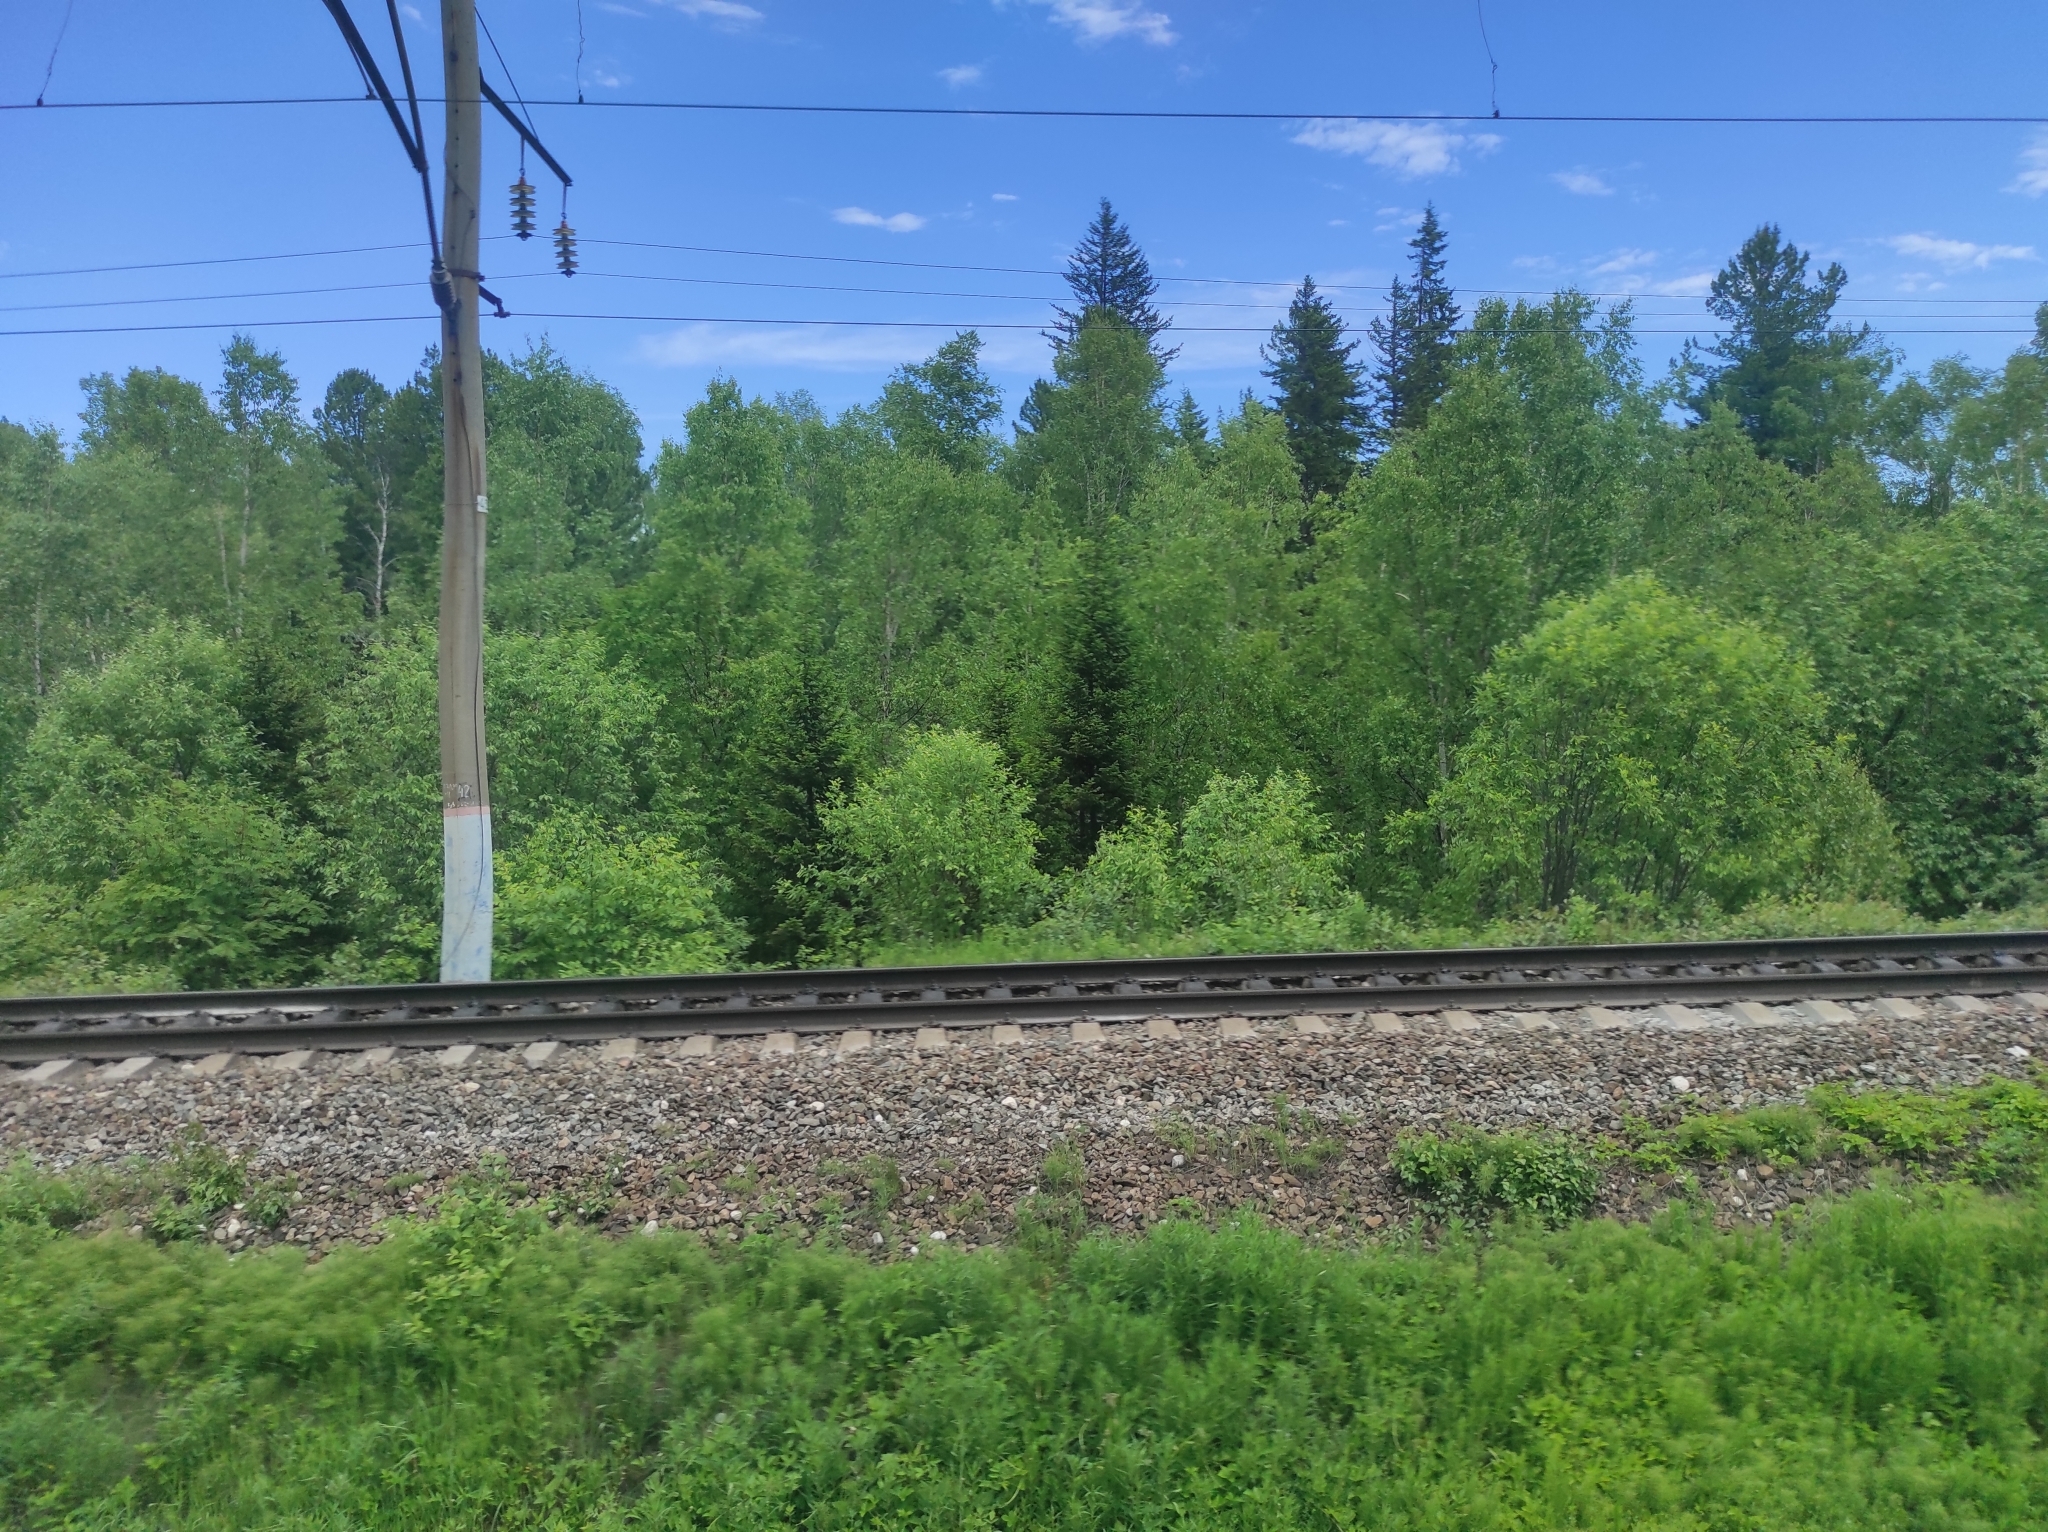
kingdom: Plantae
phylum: Tracheophyta
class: Pinopsida
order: Pinales
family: Pinaceae
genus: Picea
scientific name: Picea obovata
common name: Siberian spruce
